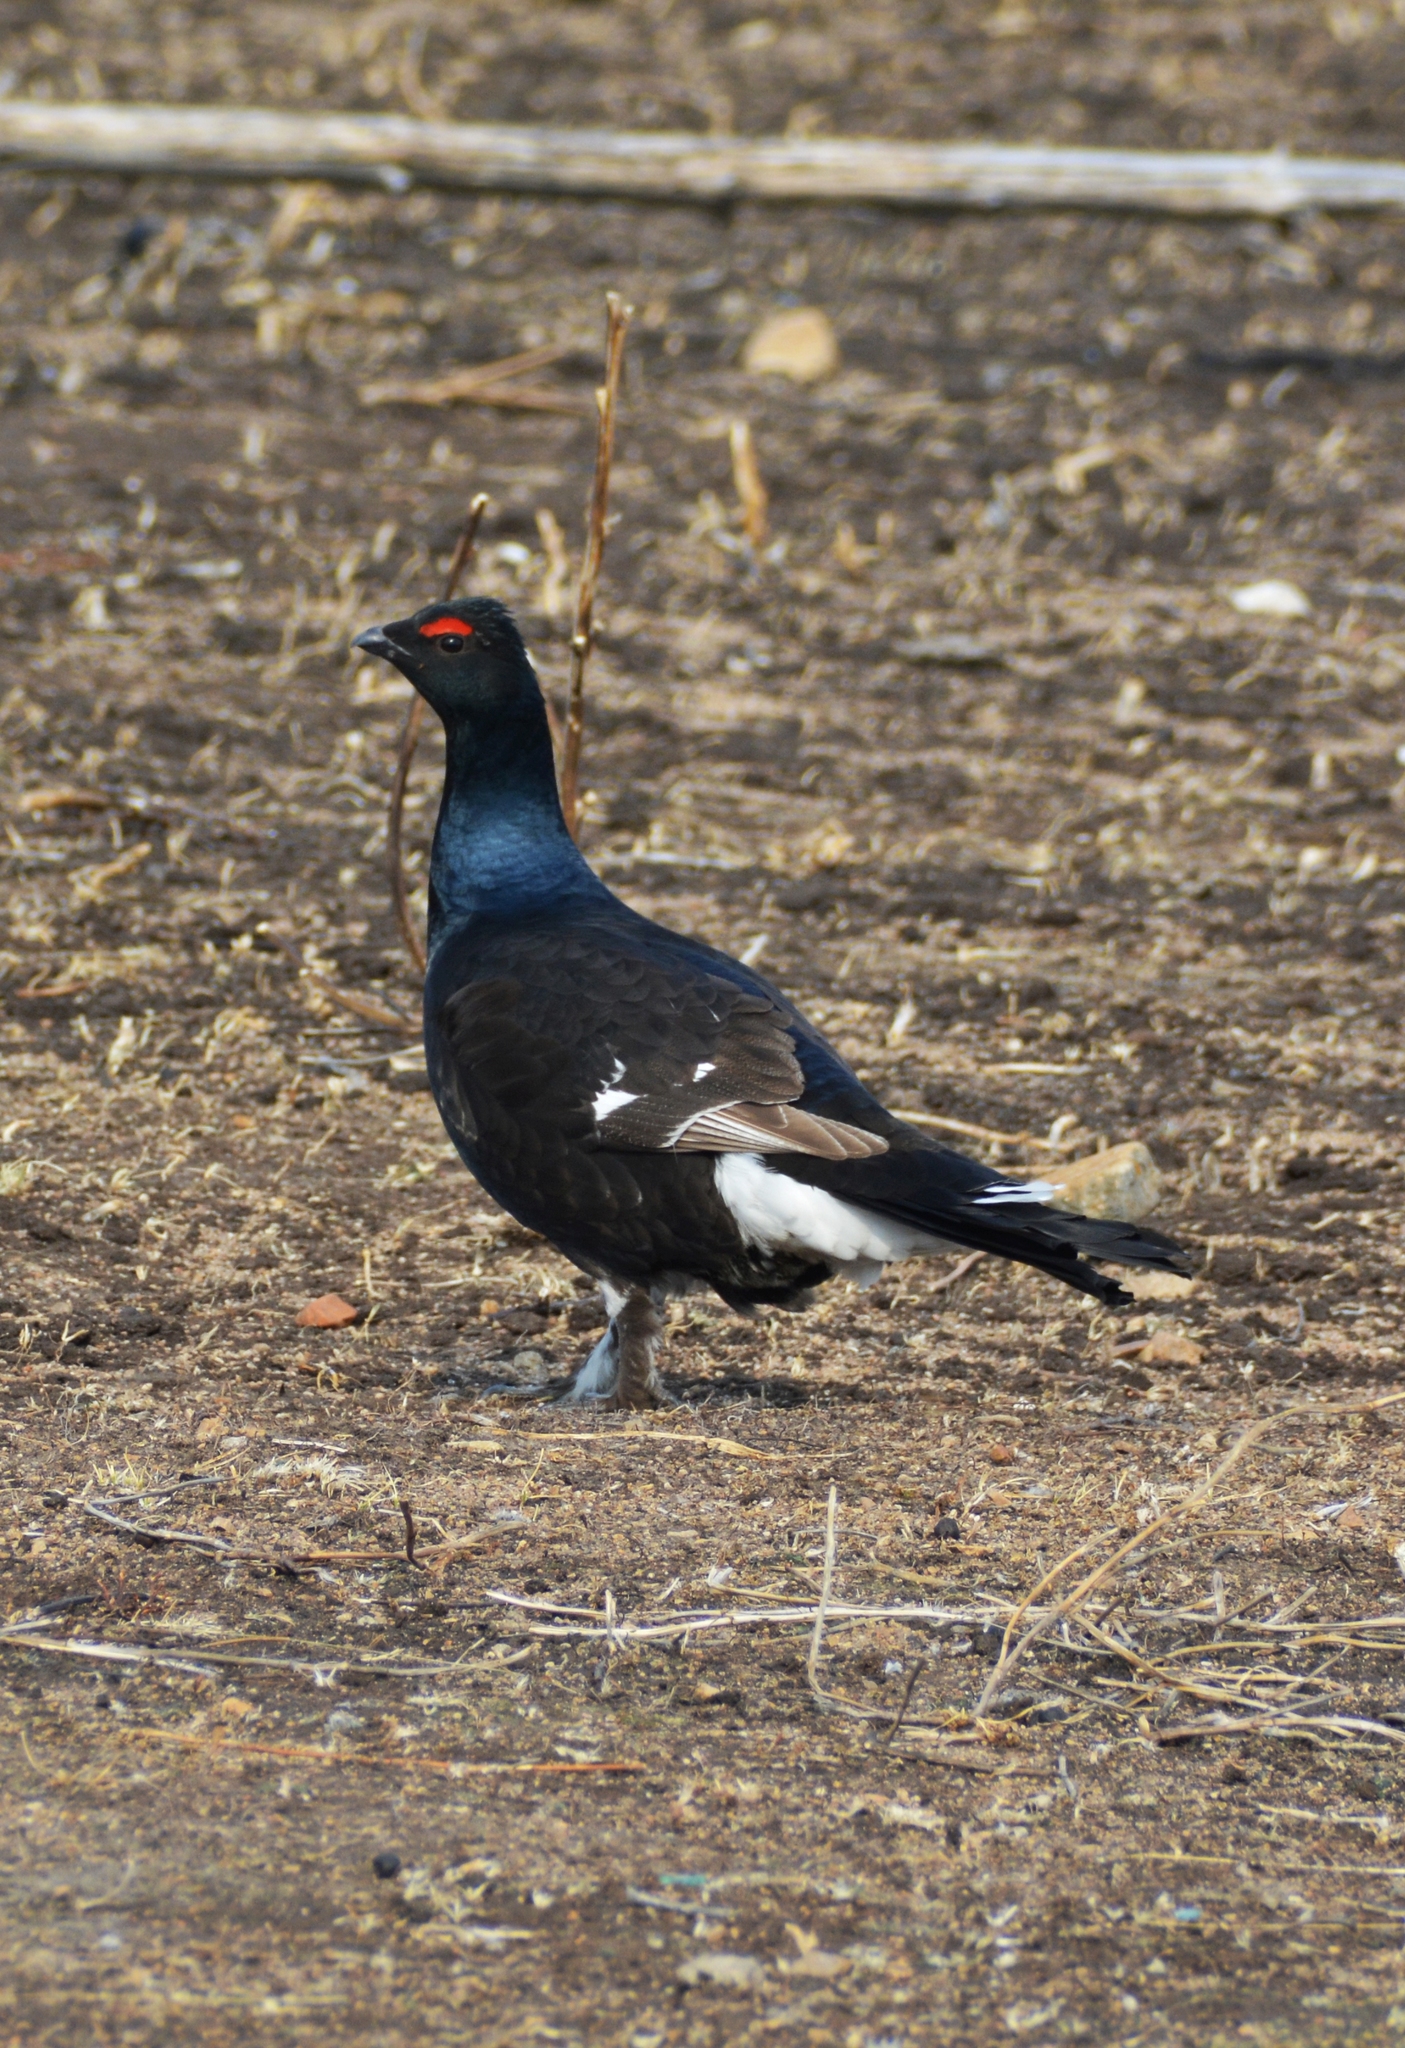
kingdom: Animalia
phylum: Chordata
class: Aves
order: Galliformes
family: Phasianidae
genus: Lyrurus
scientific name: Lyrurus tetrix
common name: Black grouse
